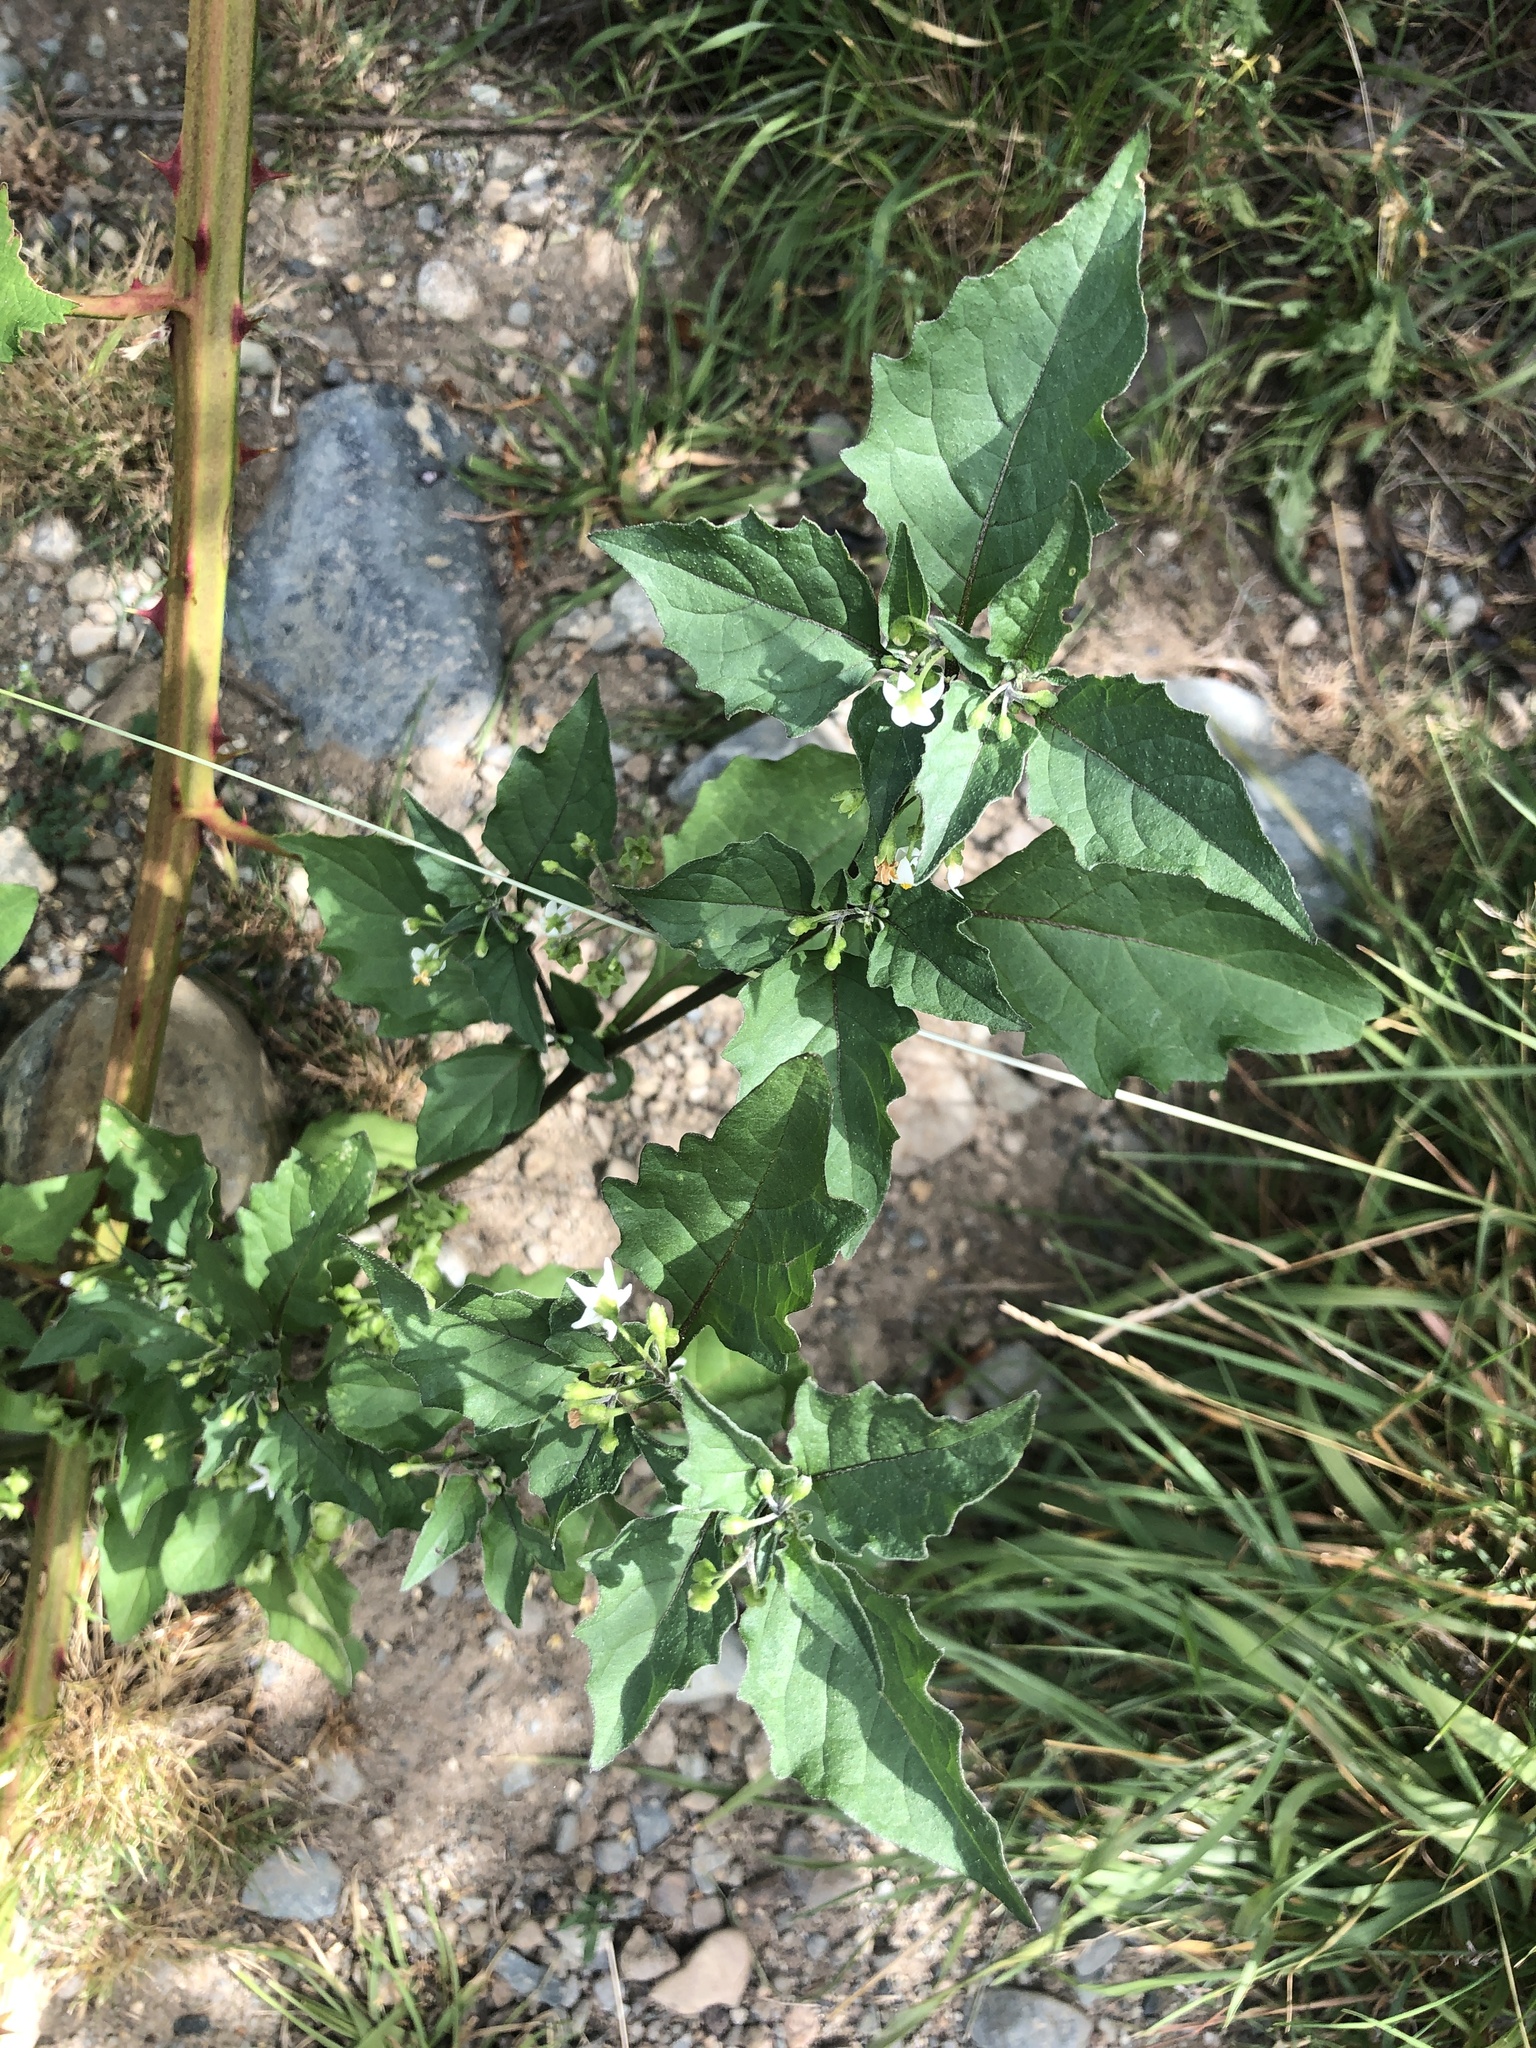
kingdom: Plantae
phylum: Tracheophyta
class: Magnoliopsida
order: Solanales
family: Solanaceae
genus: Solanum
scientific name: Solanum nigrum
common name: Black nightshade
